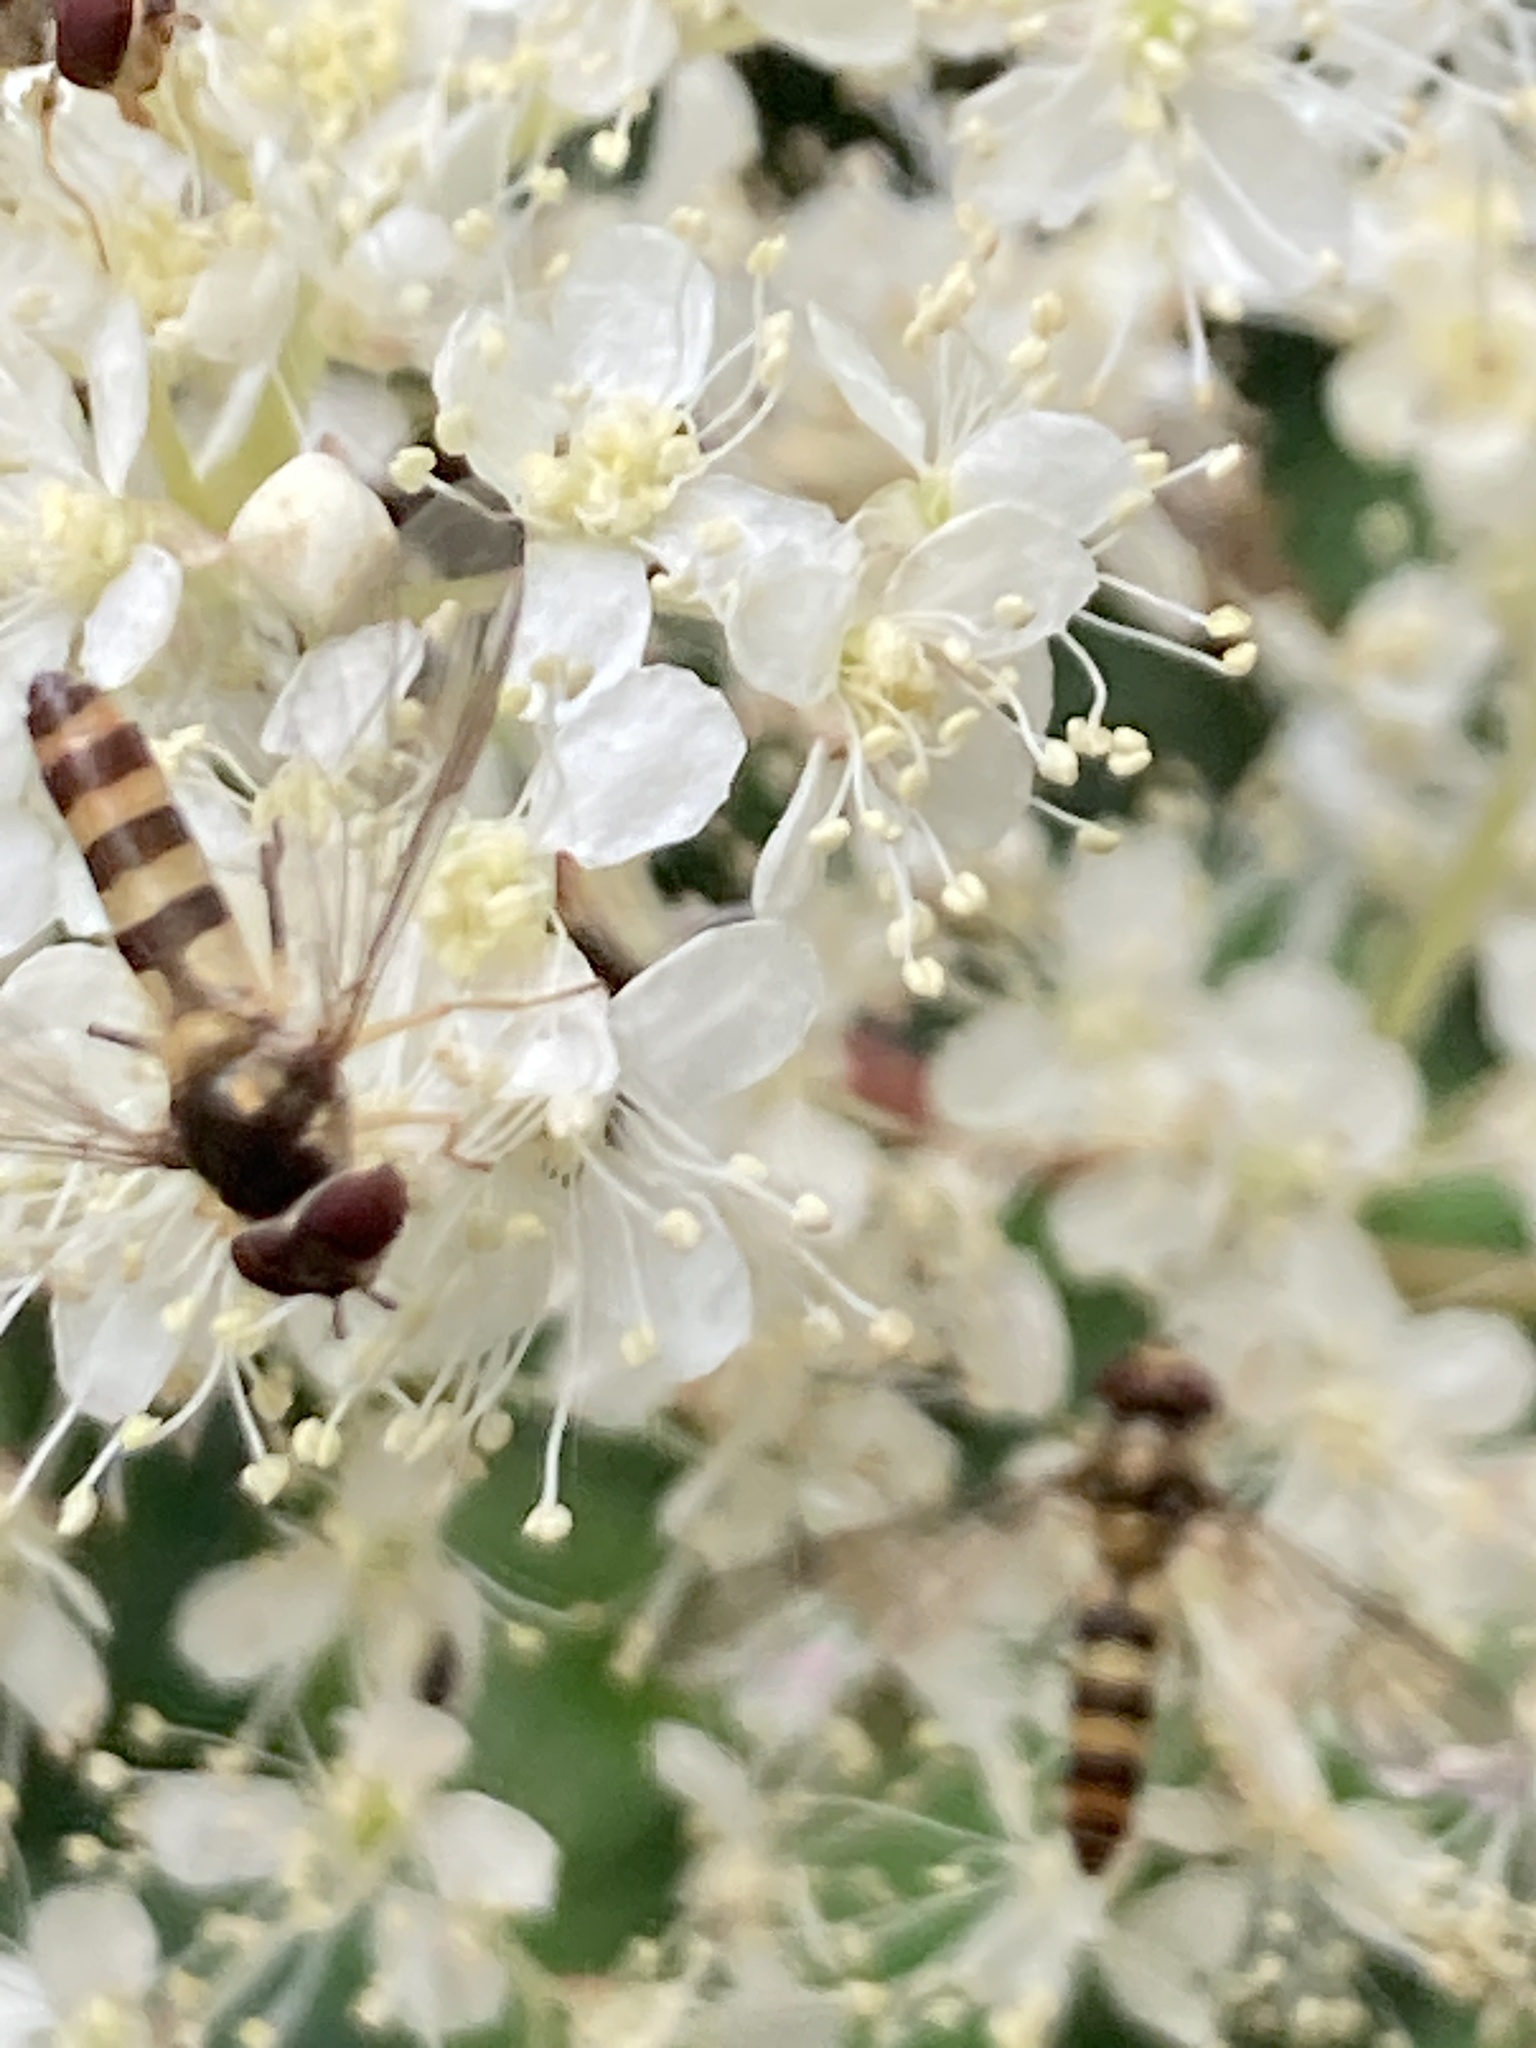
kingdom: Animalia
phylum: Arthropoda
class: Insecta
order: Diptera
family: Syrphidae
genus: Meliscaeva
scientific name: Meliscaeva cinctella
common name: American thintail fly
